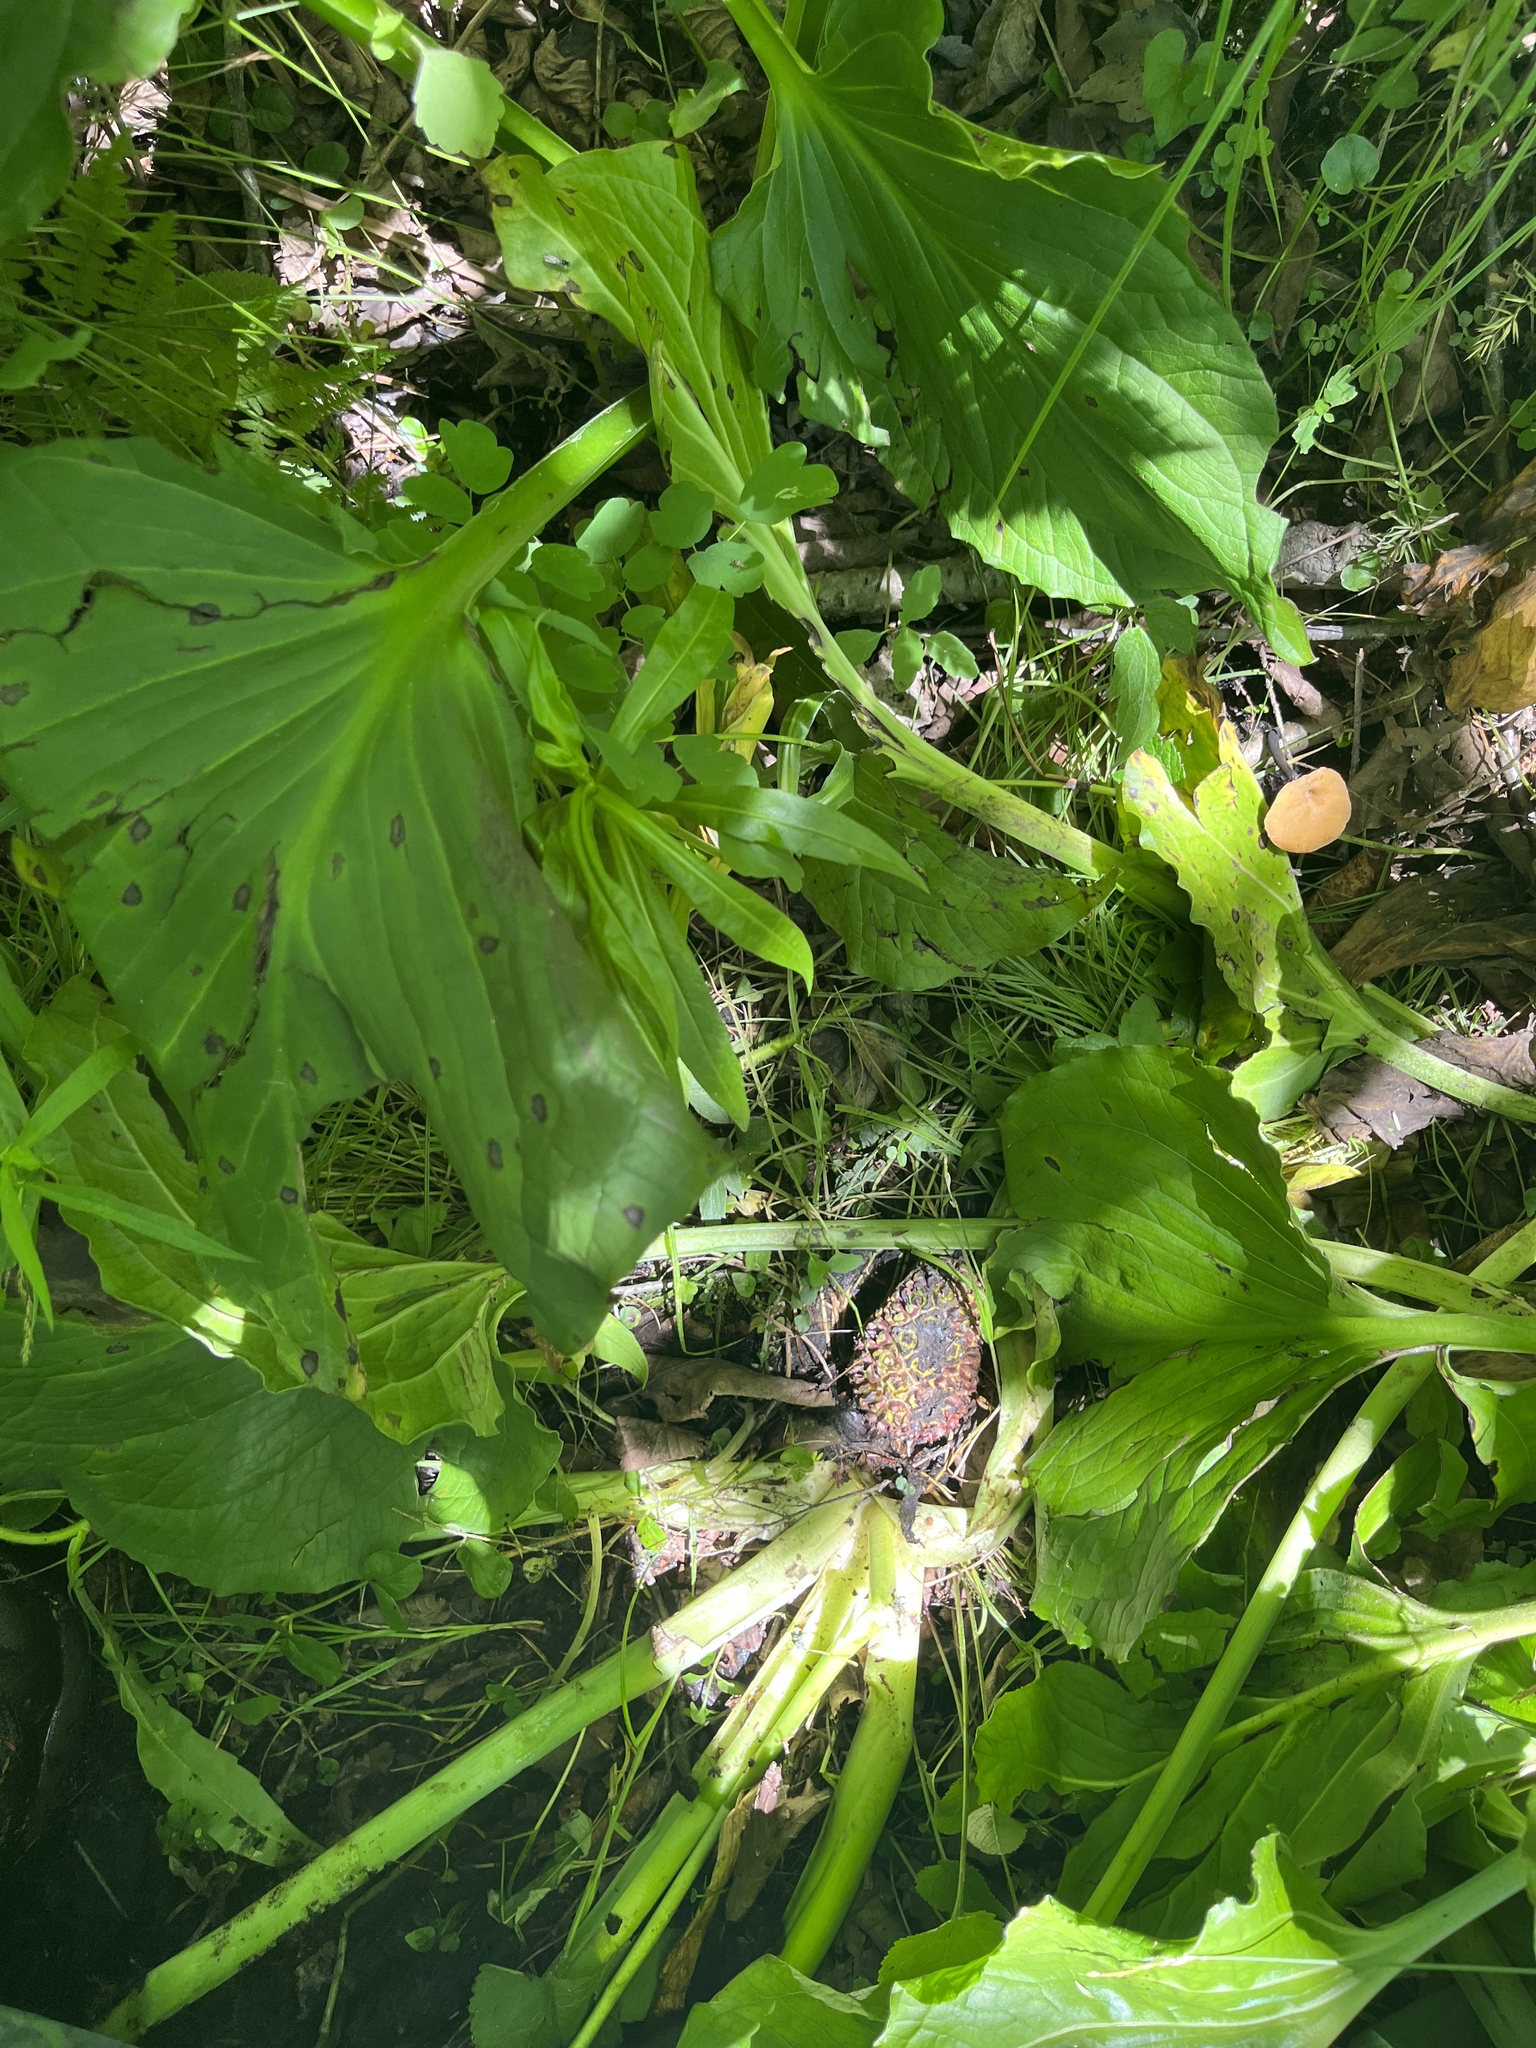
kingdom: Plantae
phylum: Tracheophyta
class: Liliopsida
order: Alismatales
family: Araceae
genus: Symplocarpus
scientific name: Symplocarpus foetidus
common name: Eastern skunk cabbage
